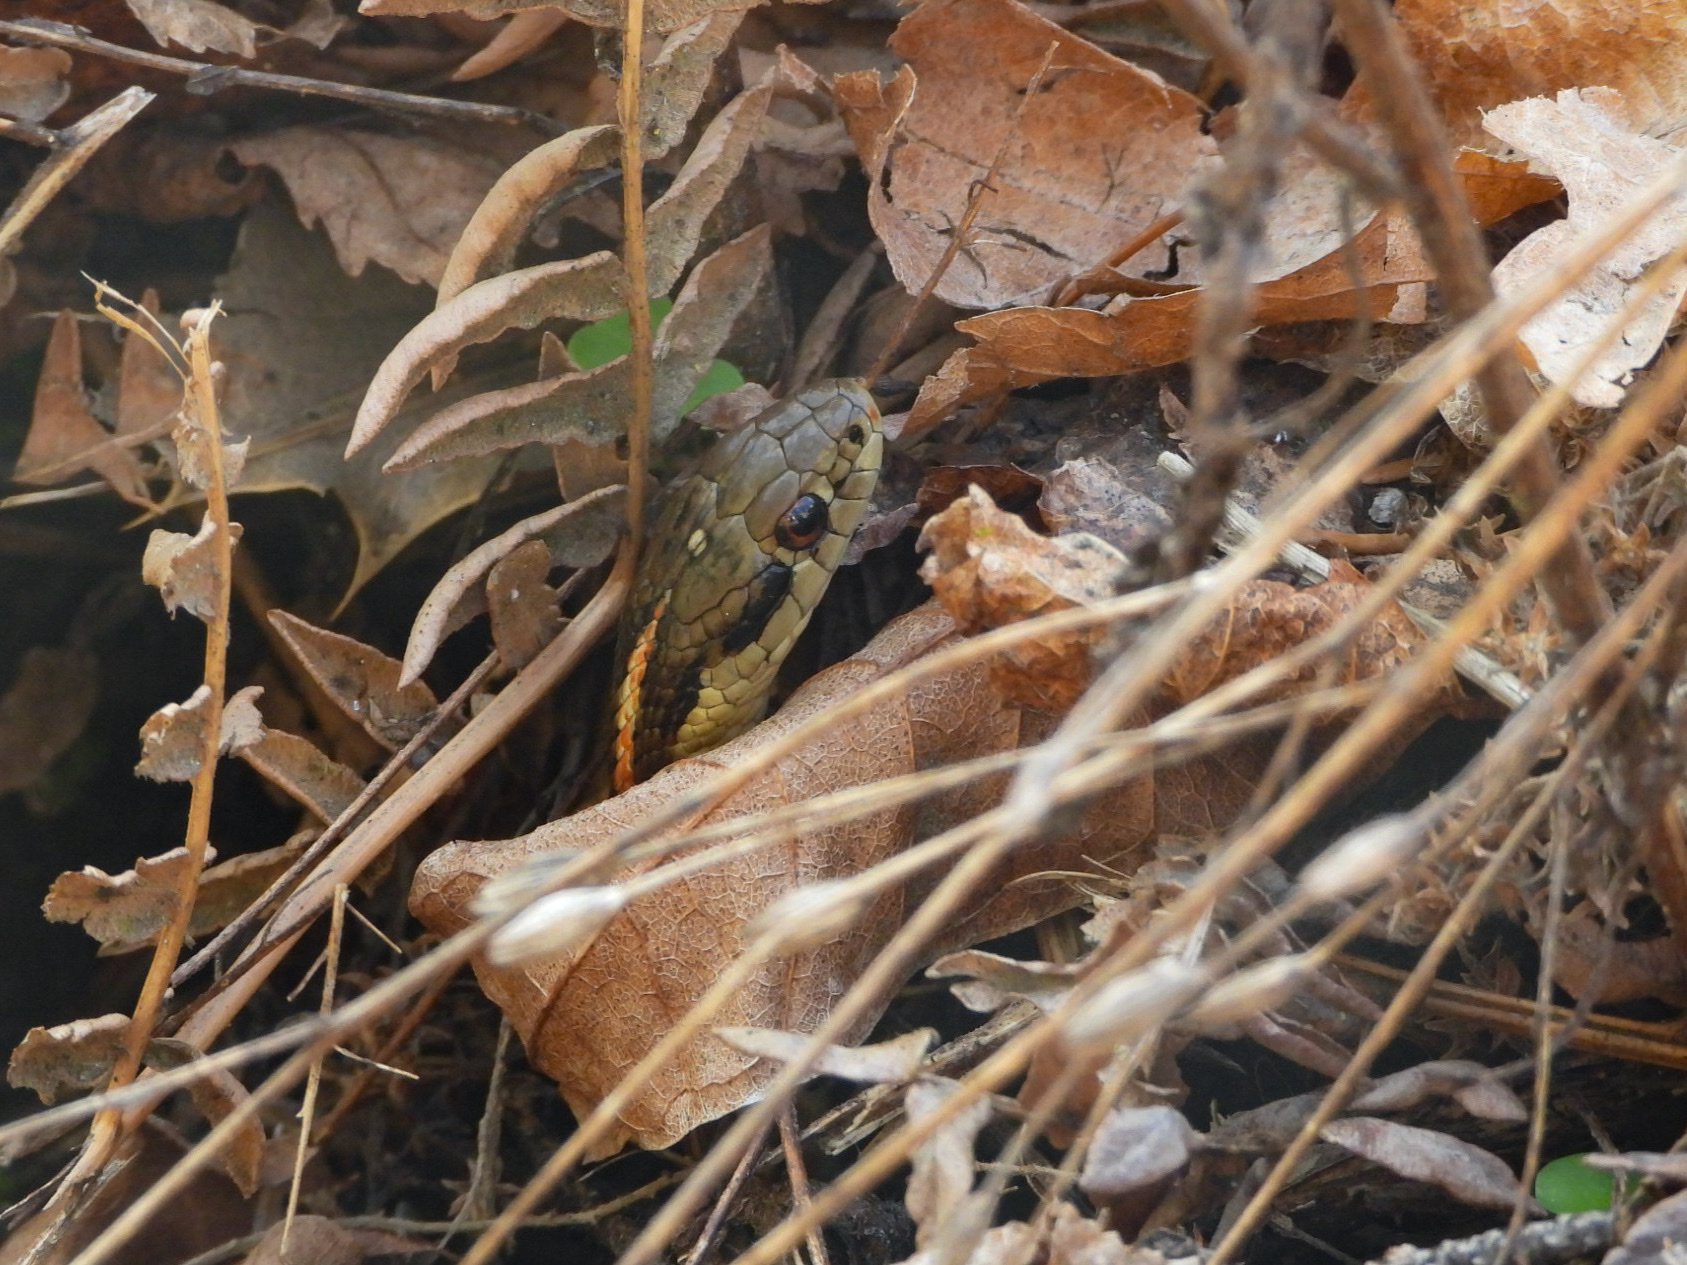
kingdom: Animalia
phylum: Chordata
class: Squamata
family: Colubridae
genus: Thamnophis
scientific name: Thamnophis ordinoides
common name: Northwestern garter snake
